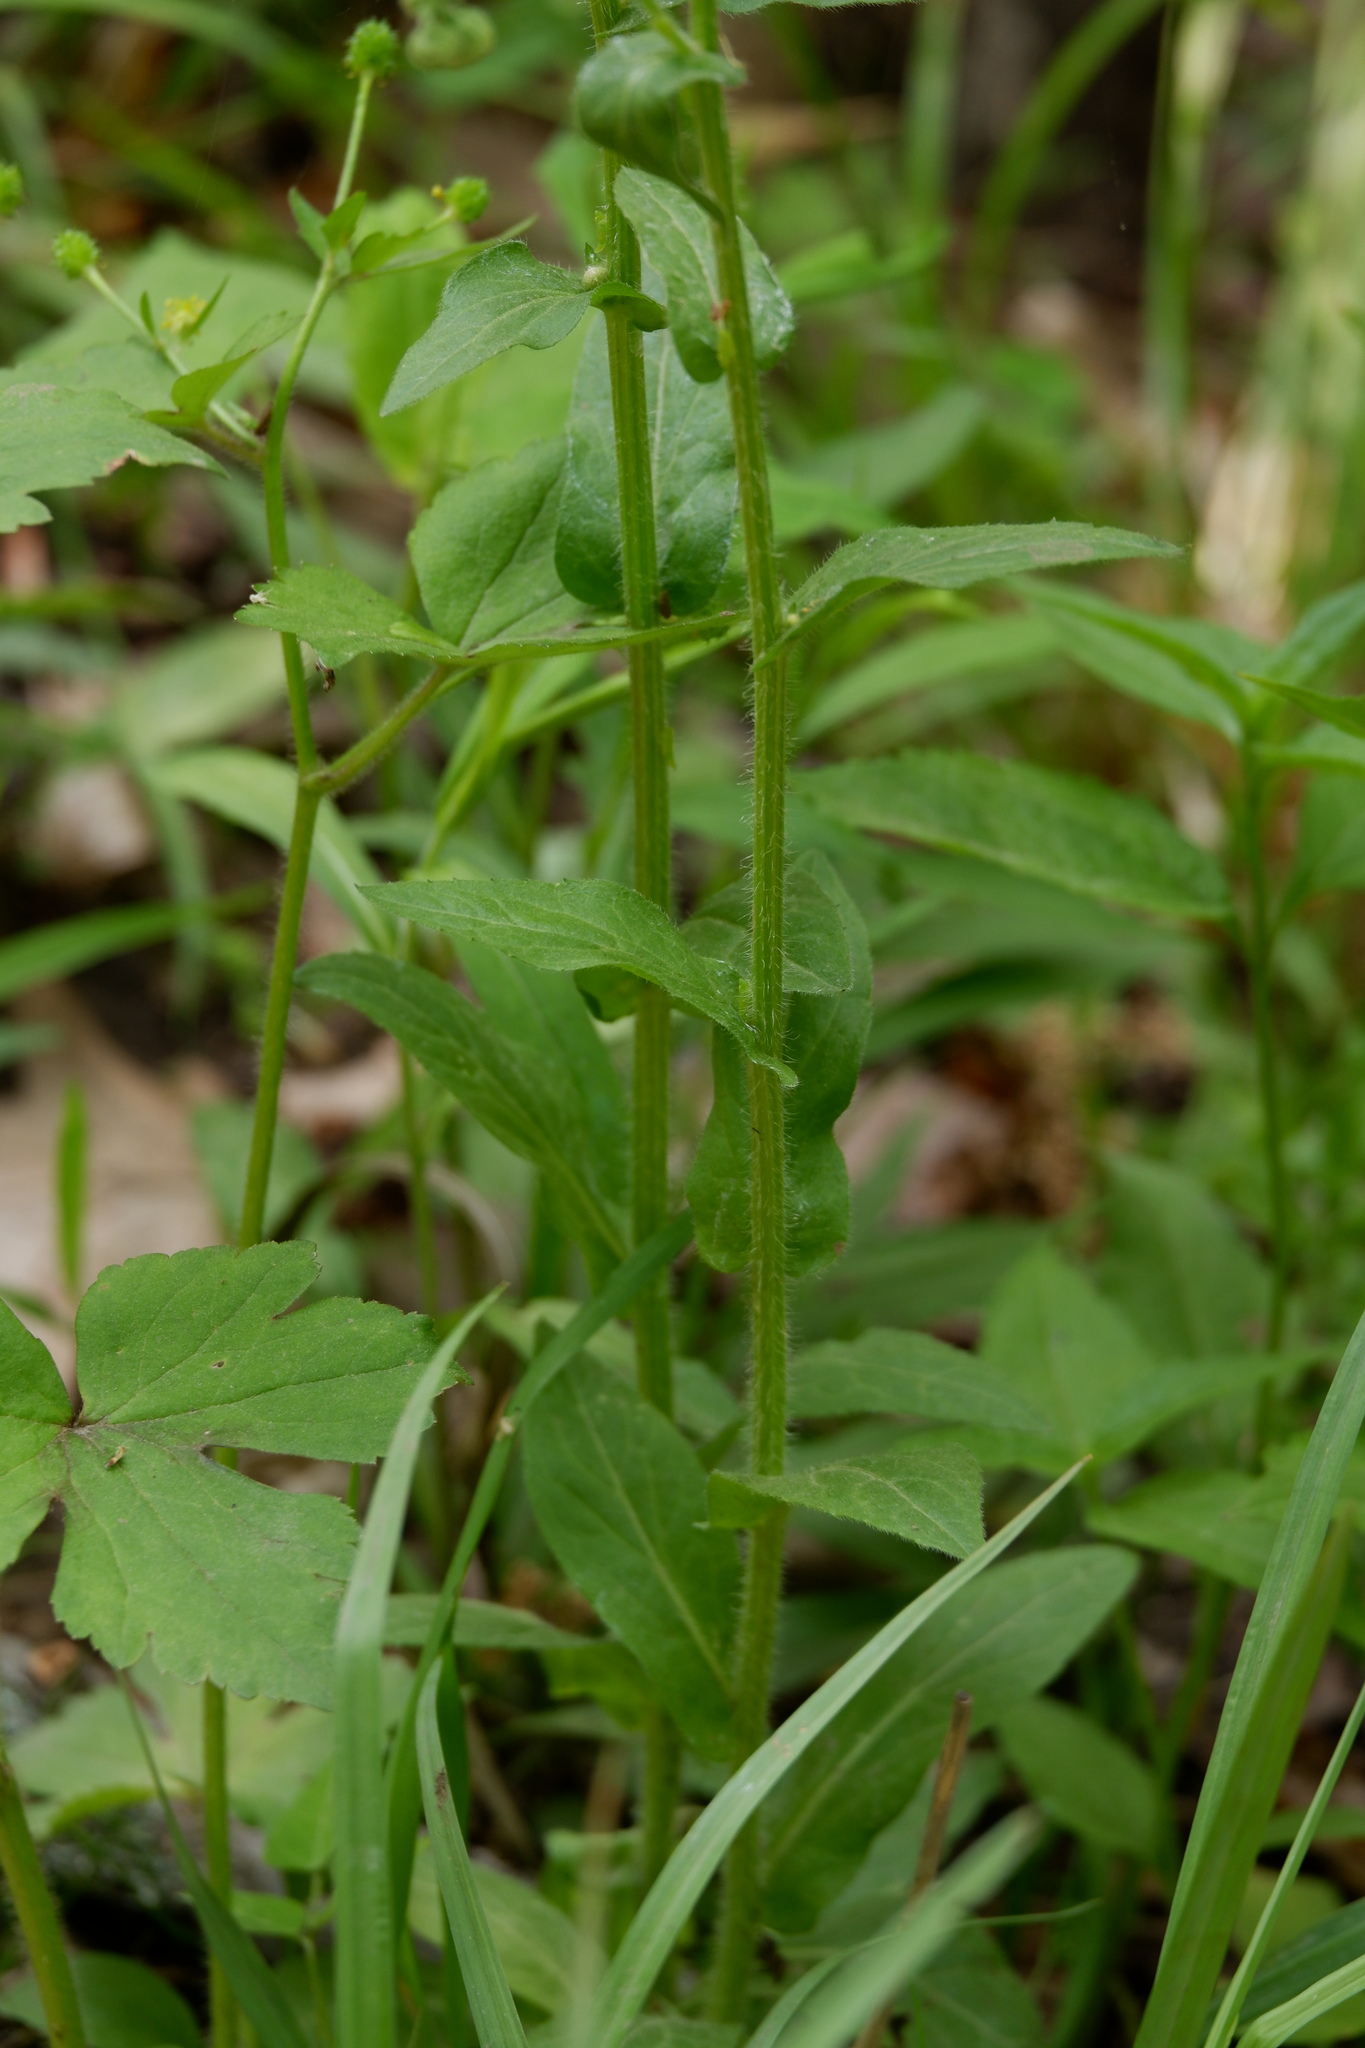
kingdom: Plantae
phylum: Tracheophyta
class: Magnoliopsida
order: Asterales
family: Asteraceae
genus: Erigeron
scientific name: Erigeron philadelphicus
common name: Robin's-plantain
